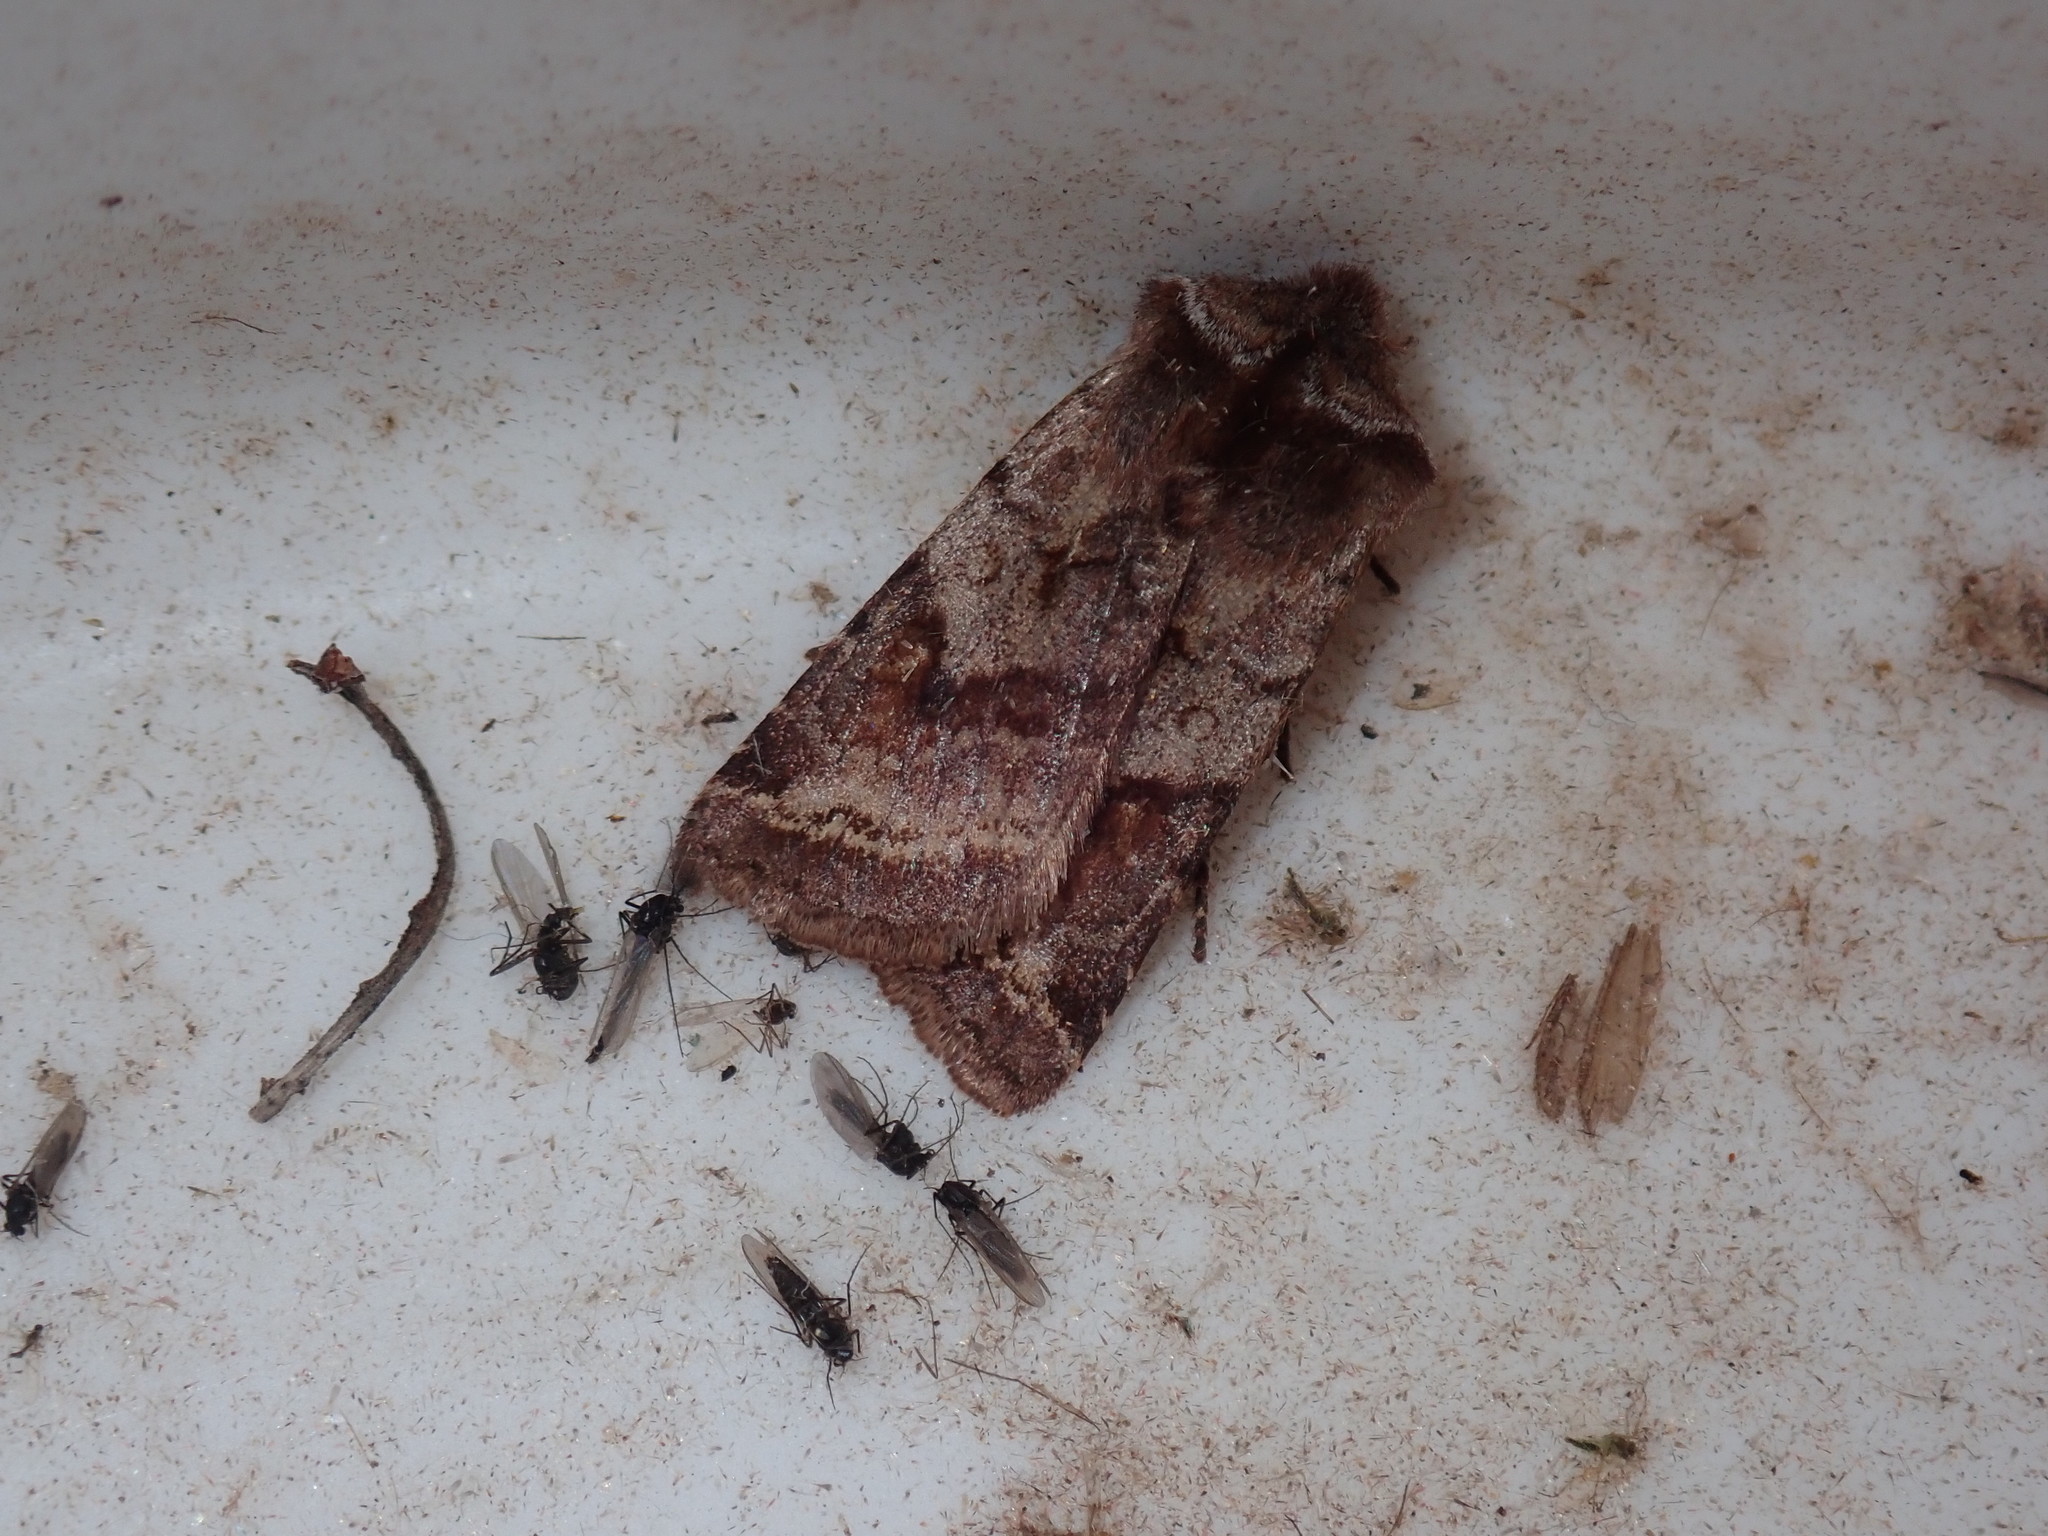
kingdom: Animalia
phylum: Arthropoda
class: Insecta
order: Lepidoptera
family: Noctuidae
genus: Cerastis
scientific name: Cerastis salicarum
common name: Willow dart
